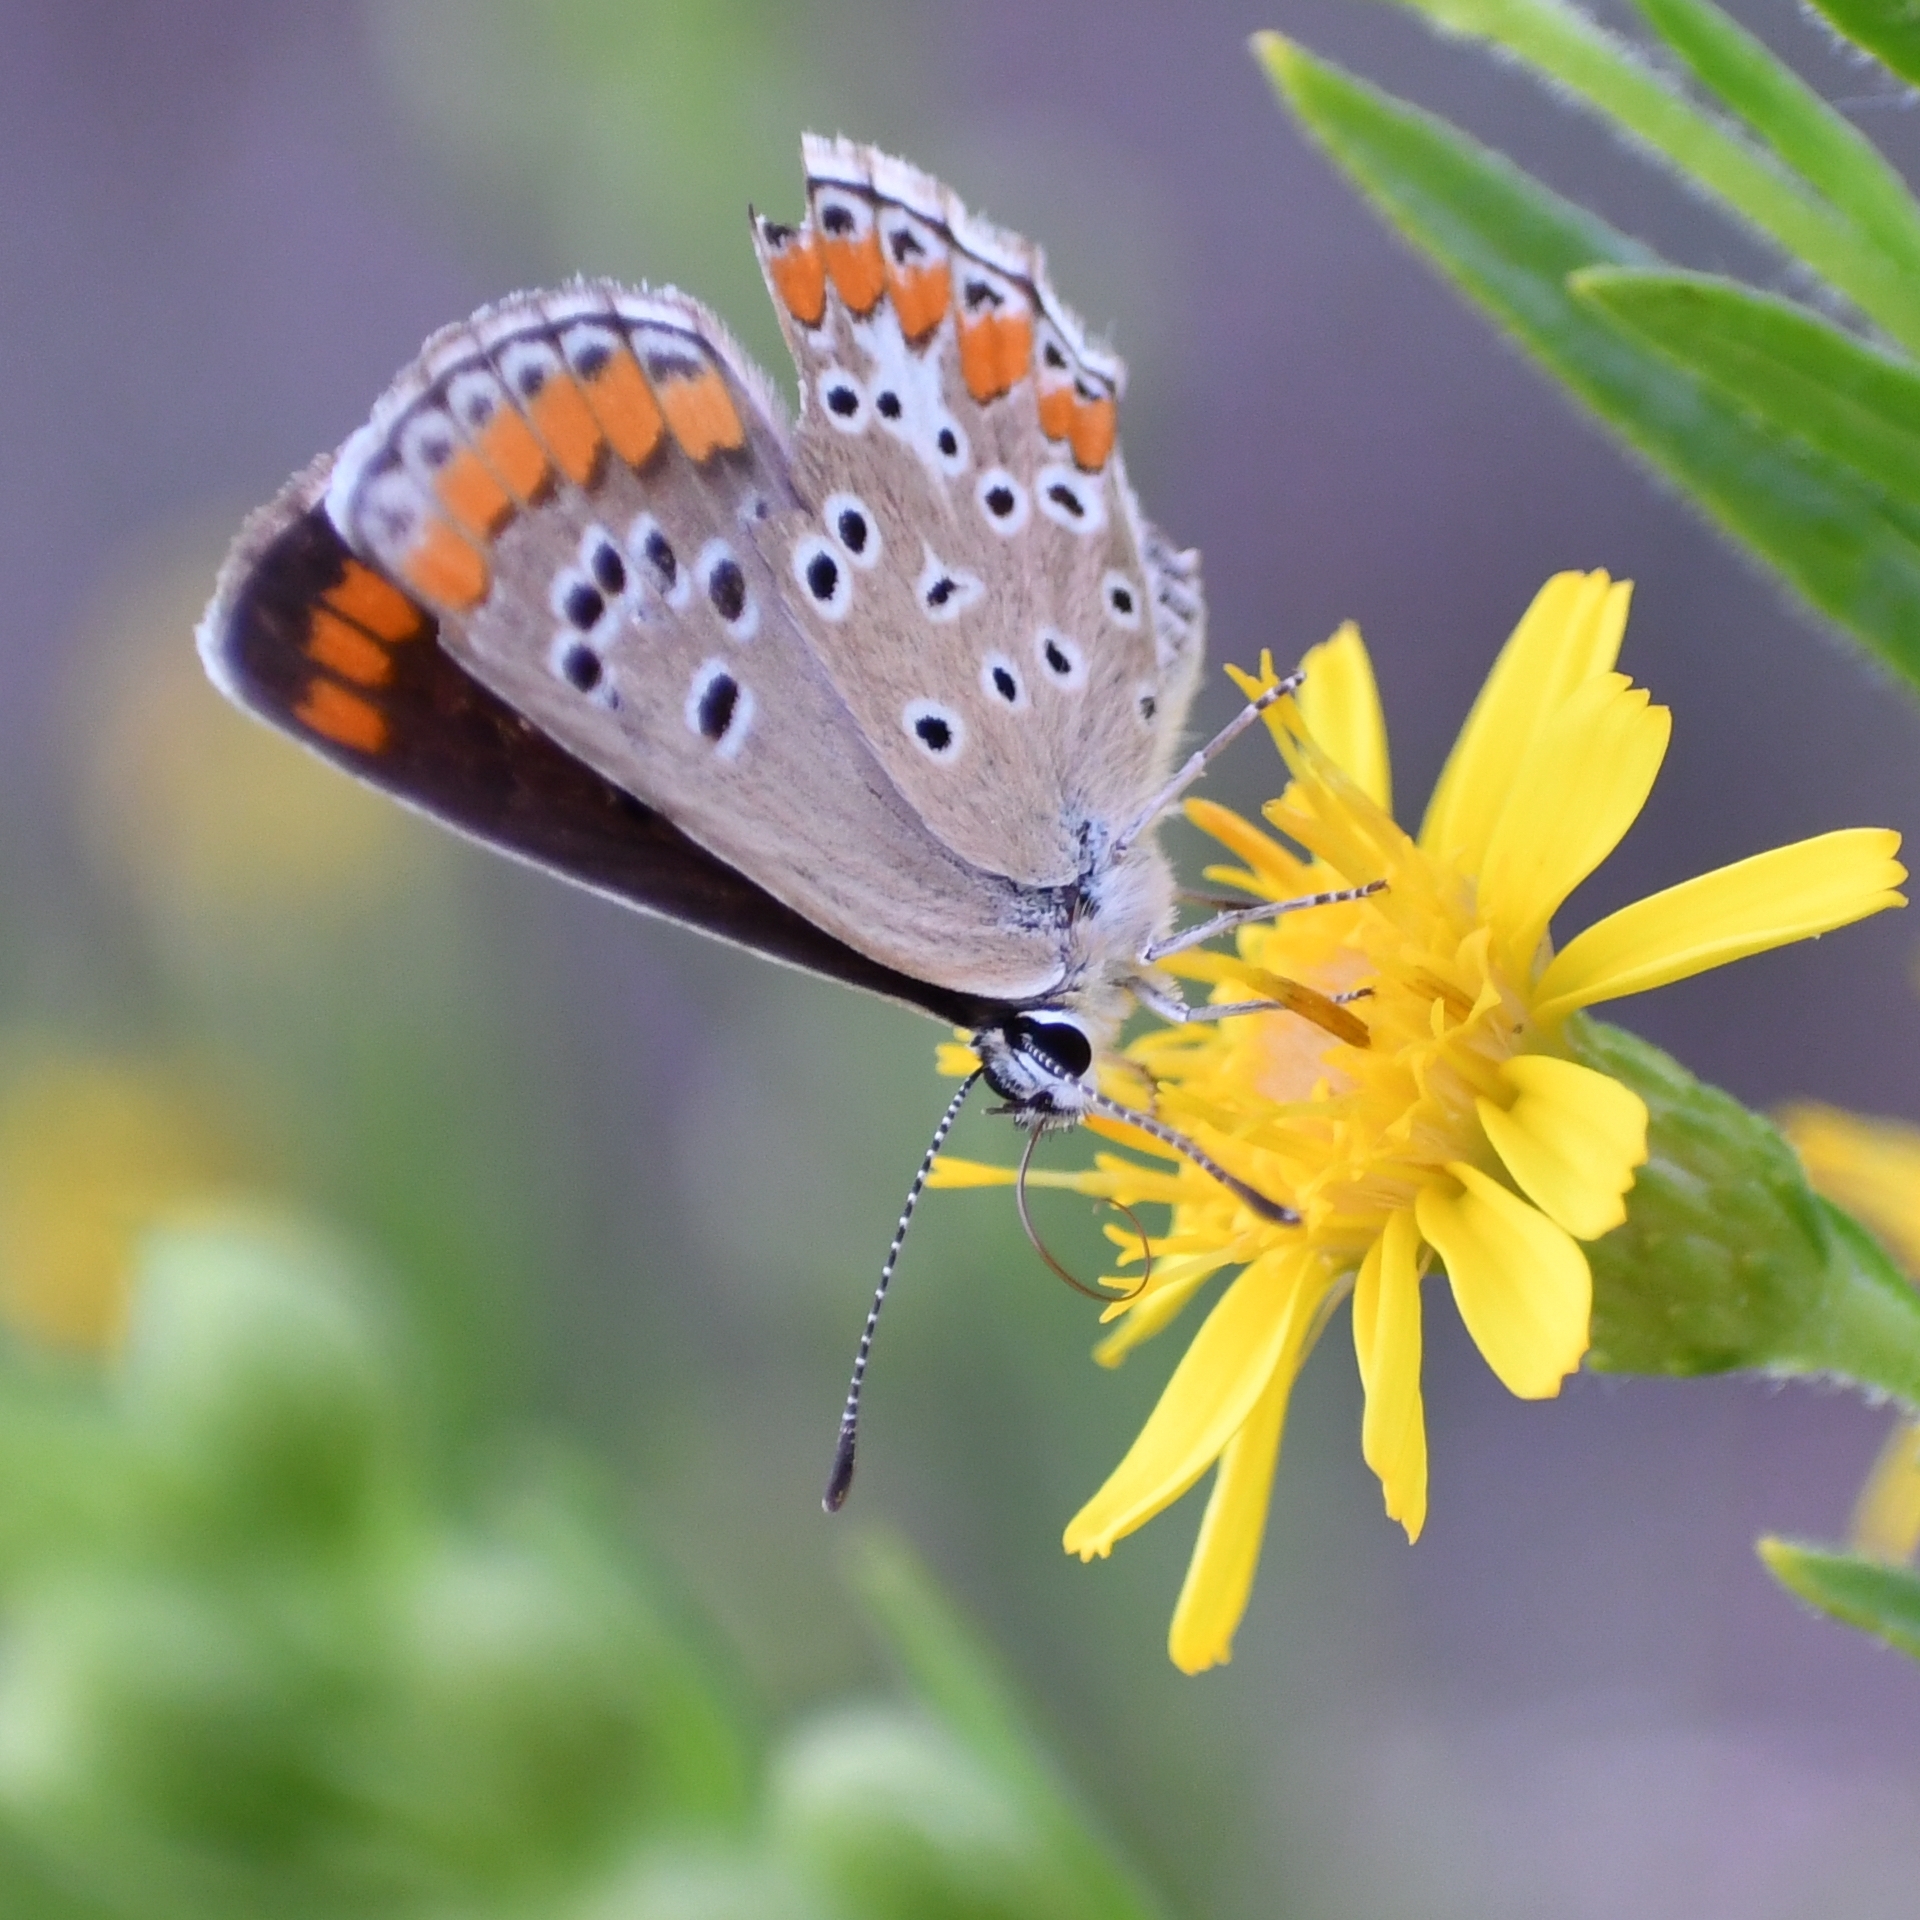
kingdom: Animalia
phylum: Arthropoda
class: Insecta
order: Lepidoptera
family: Lycaenidae
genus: Aricia
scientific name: Aricia agestis
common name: Brown argus
